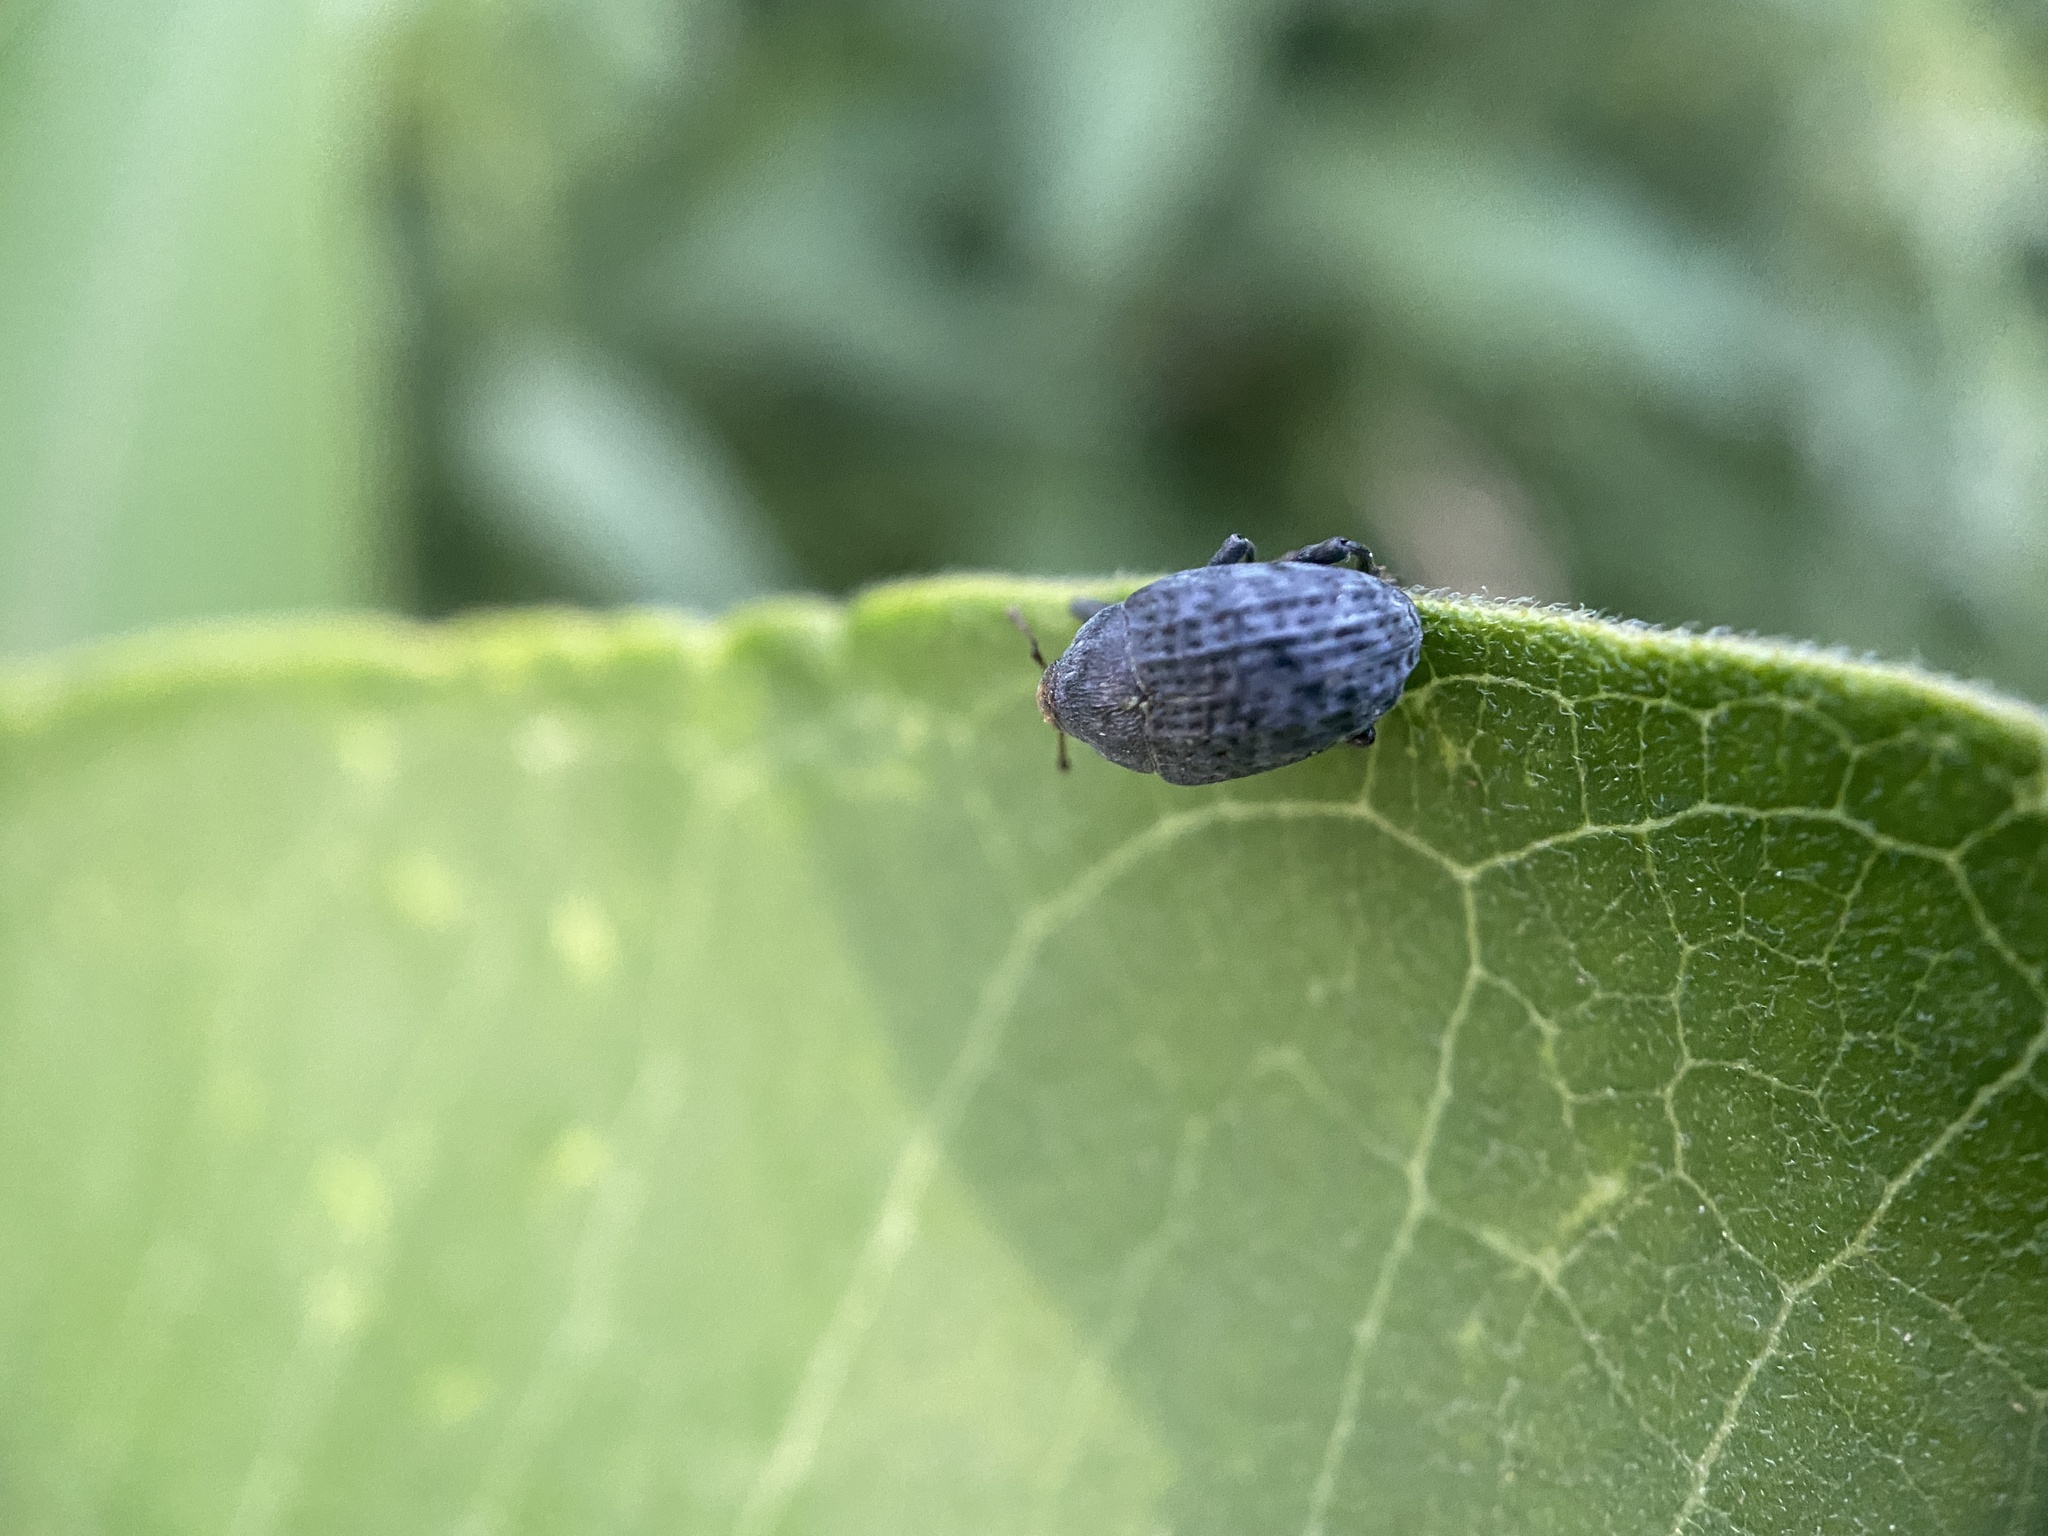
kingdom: Animalia
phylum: Arthropoda
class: Insecta
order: Coleoptera
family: Curculionidae
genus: Rhyssomatus
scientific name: Rhyssomatus lineaticollis
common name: Milkweed stem weevil
